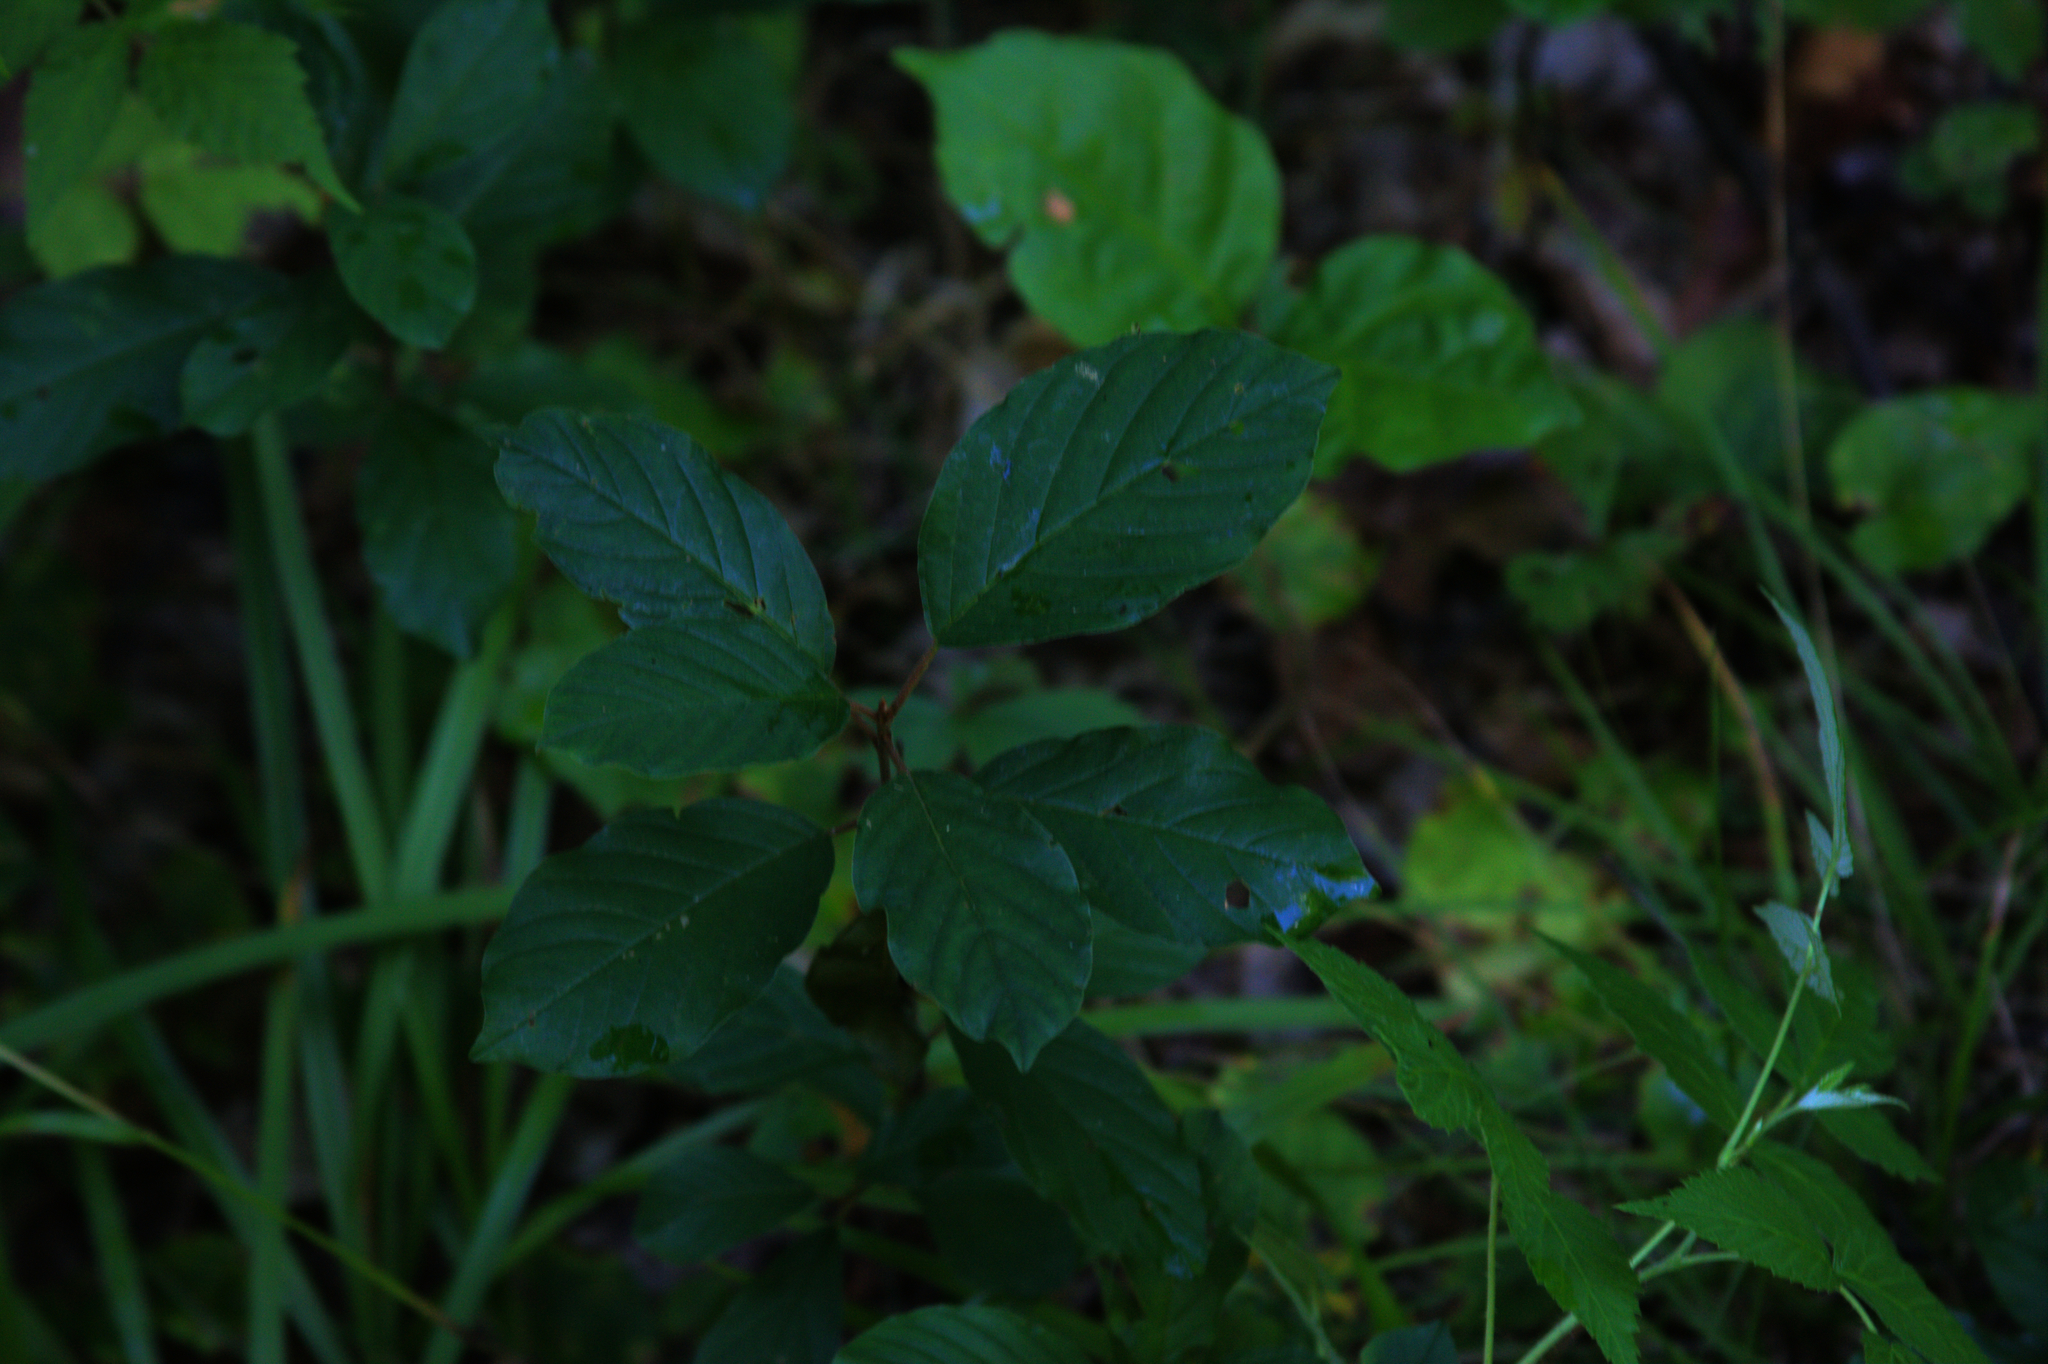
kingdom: Plantae
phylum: Tracheophyta
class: Magnoliopsida
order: Rosales
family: Rhamnaceae
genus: Frangula
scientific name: Frangula alnus
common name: Alder buckthorn
